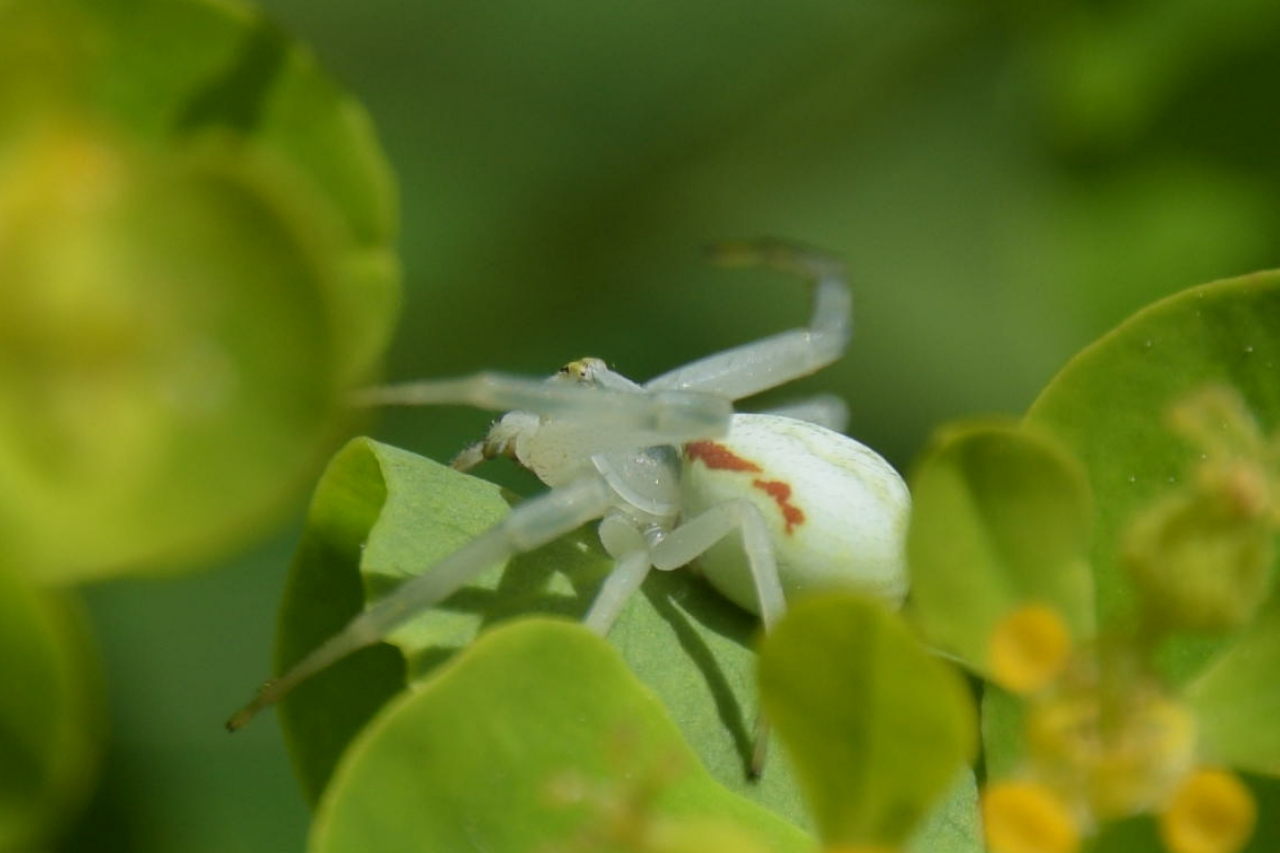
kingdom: Animalia
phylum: Arthropoda
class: Arachnida
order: Araneae
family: Thomisidae
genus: Misumena
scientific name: Misumena vatia
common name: Goldenrod crab spider
